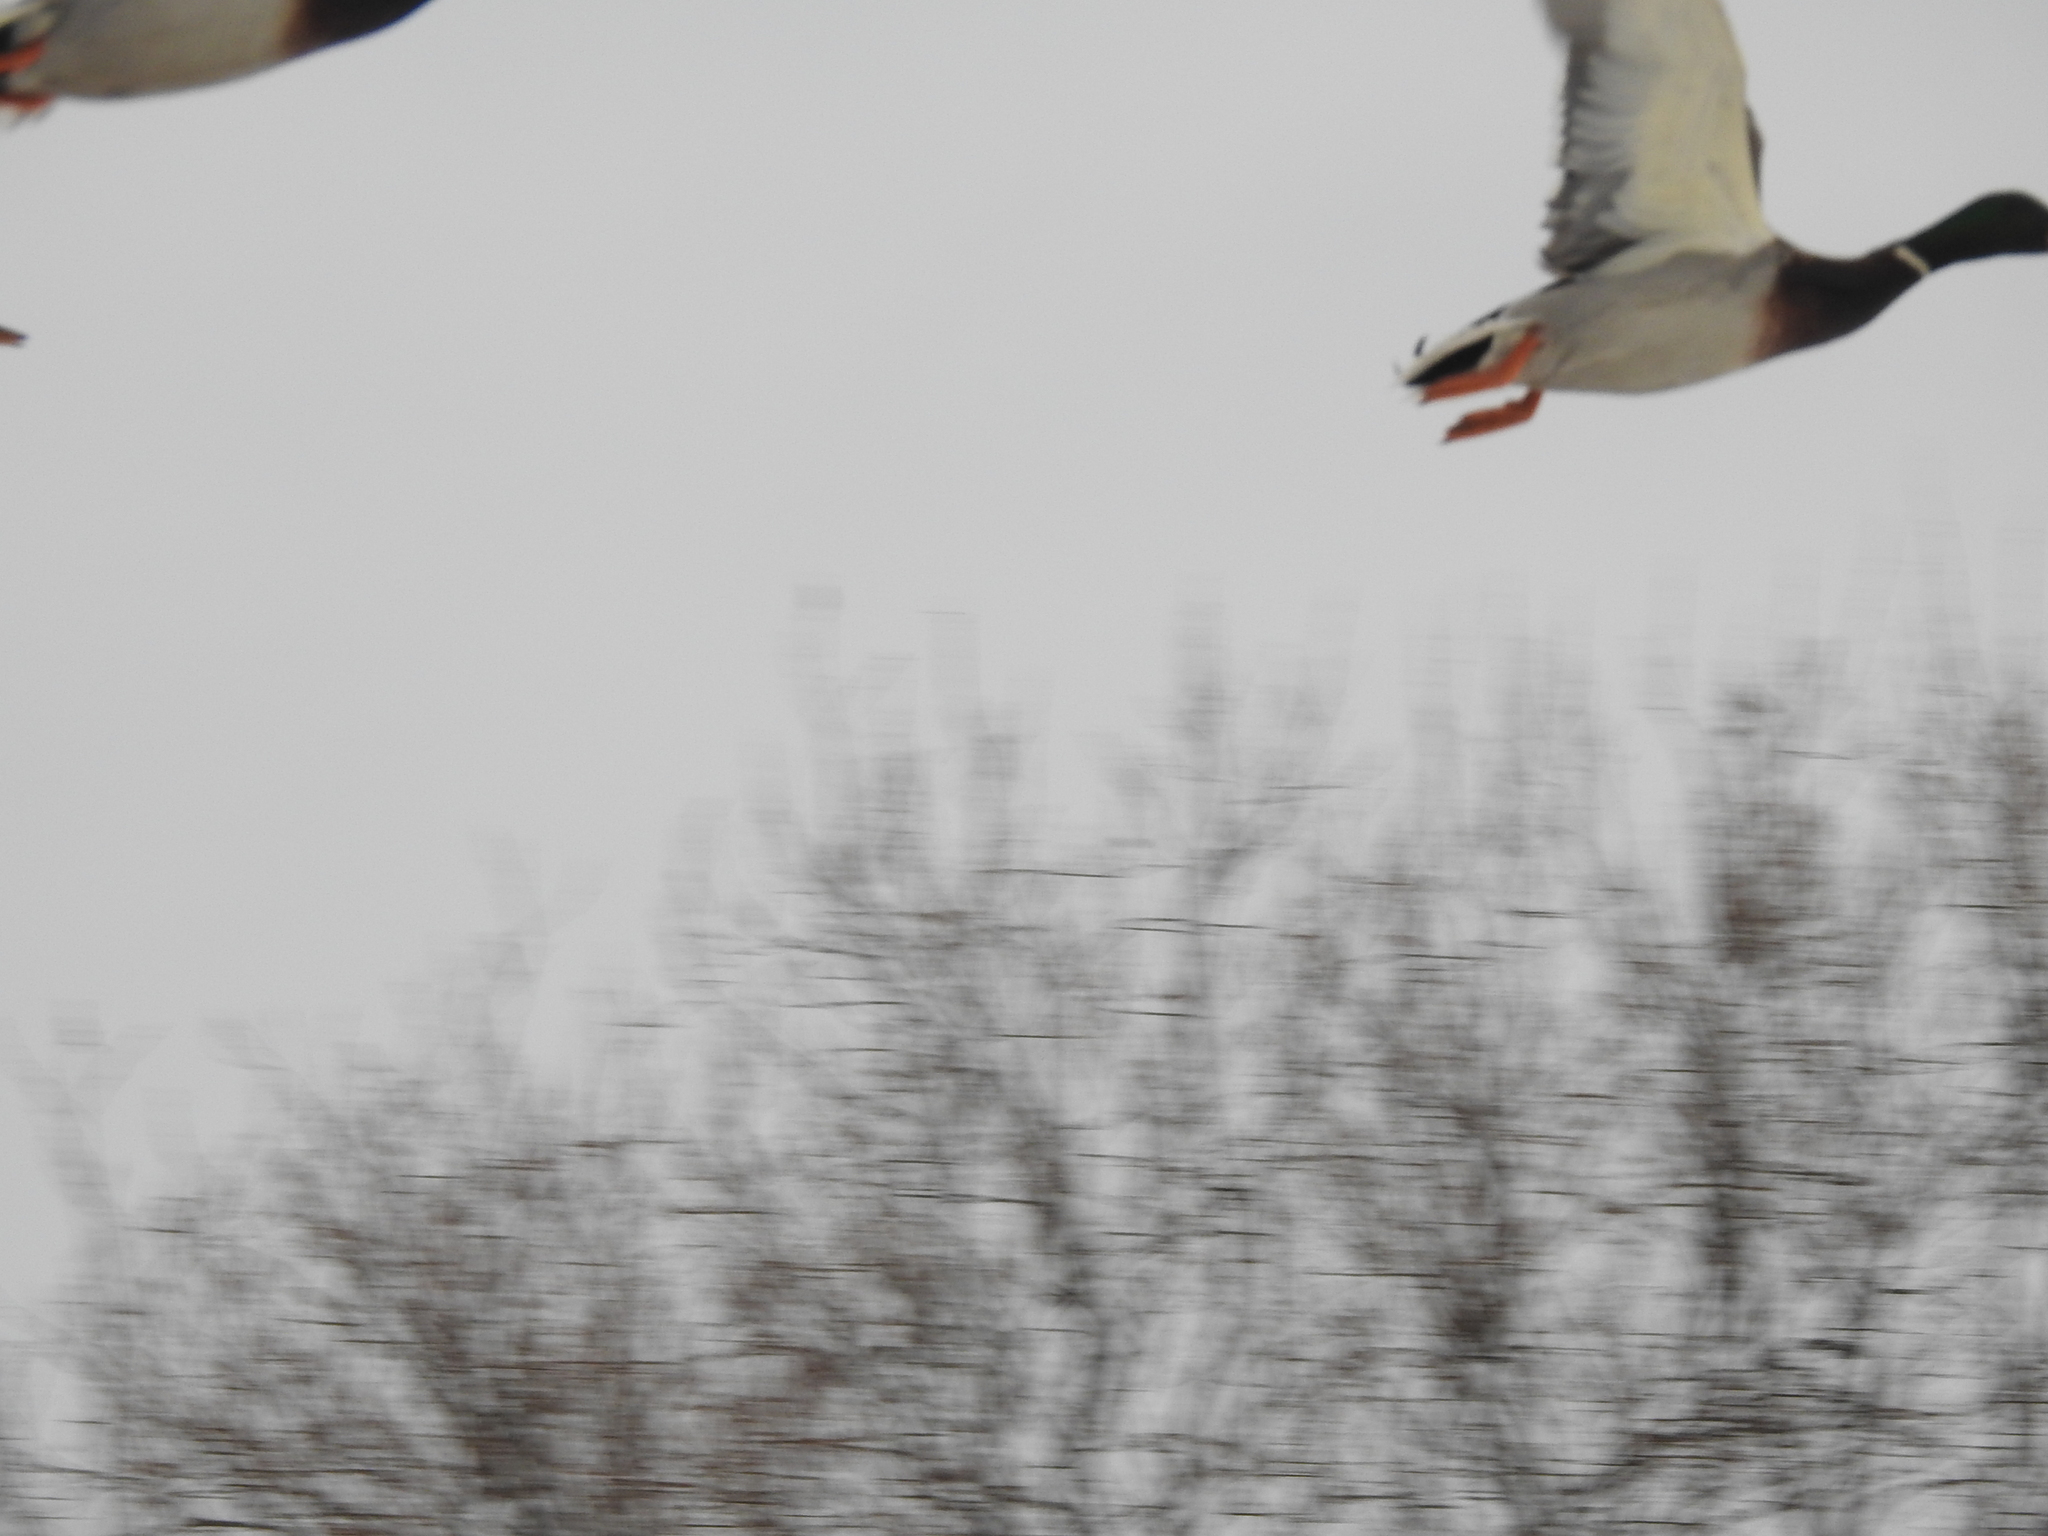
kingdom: Animalia
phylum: Chordata
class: Aves
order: Anseriformes
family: Anatidae
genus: Anas
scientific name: Anas platyrhynchos
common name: Mallard
